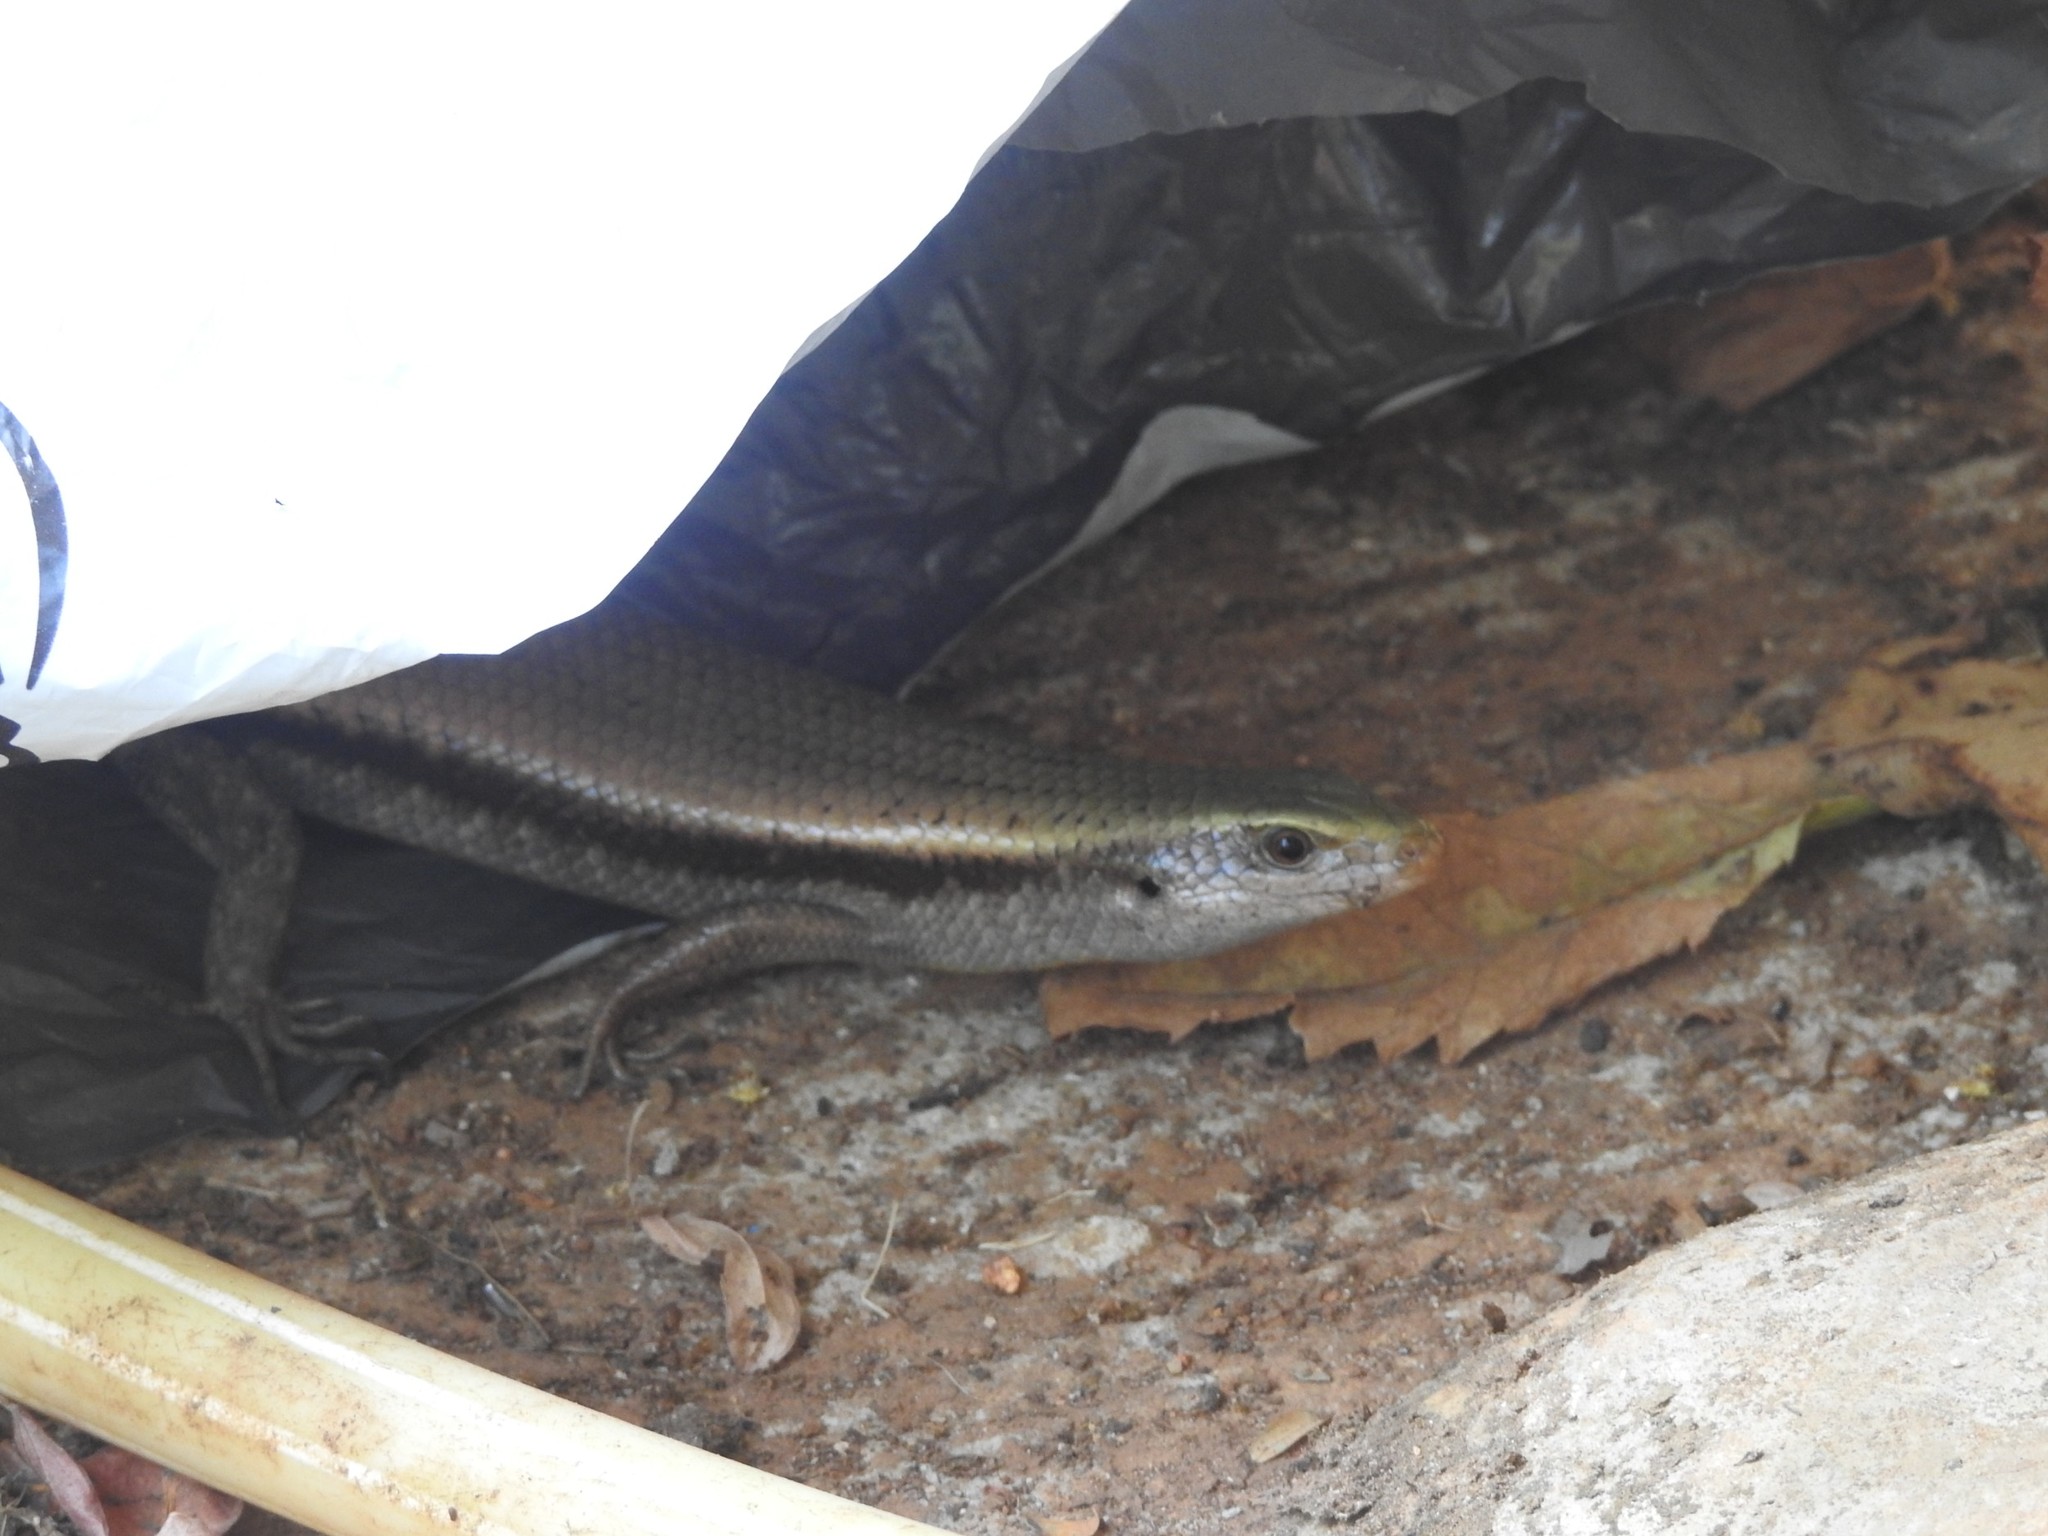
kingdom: Animalia
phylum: Chordata
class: Squamata
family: Scincidae
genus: Eutropis
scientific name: Eutropis carinata
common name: Keeled indian mabuya
